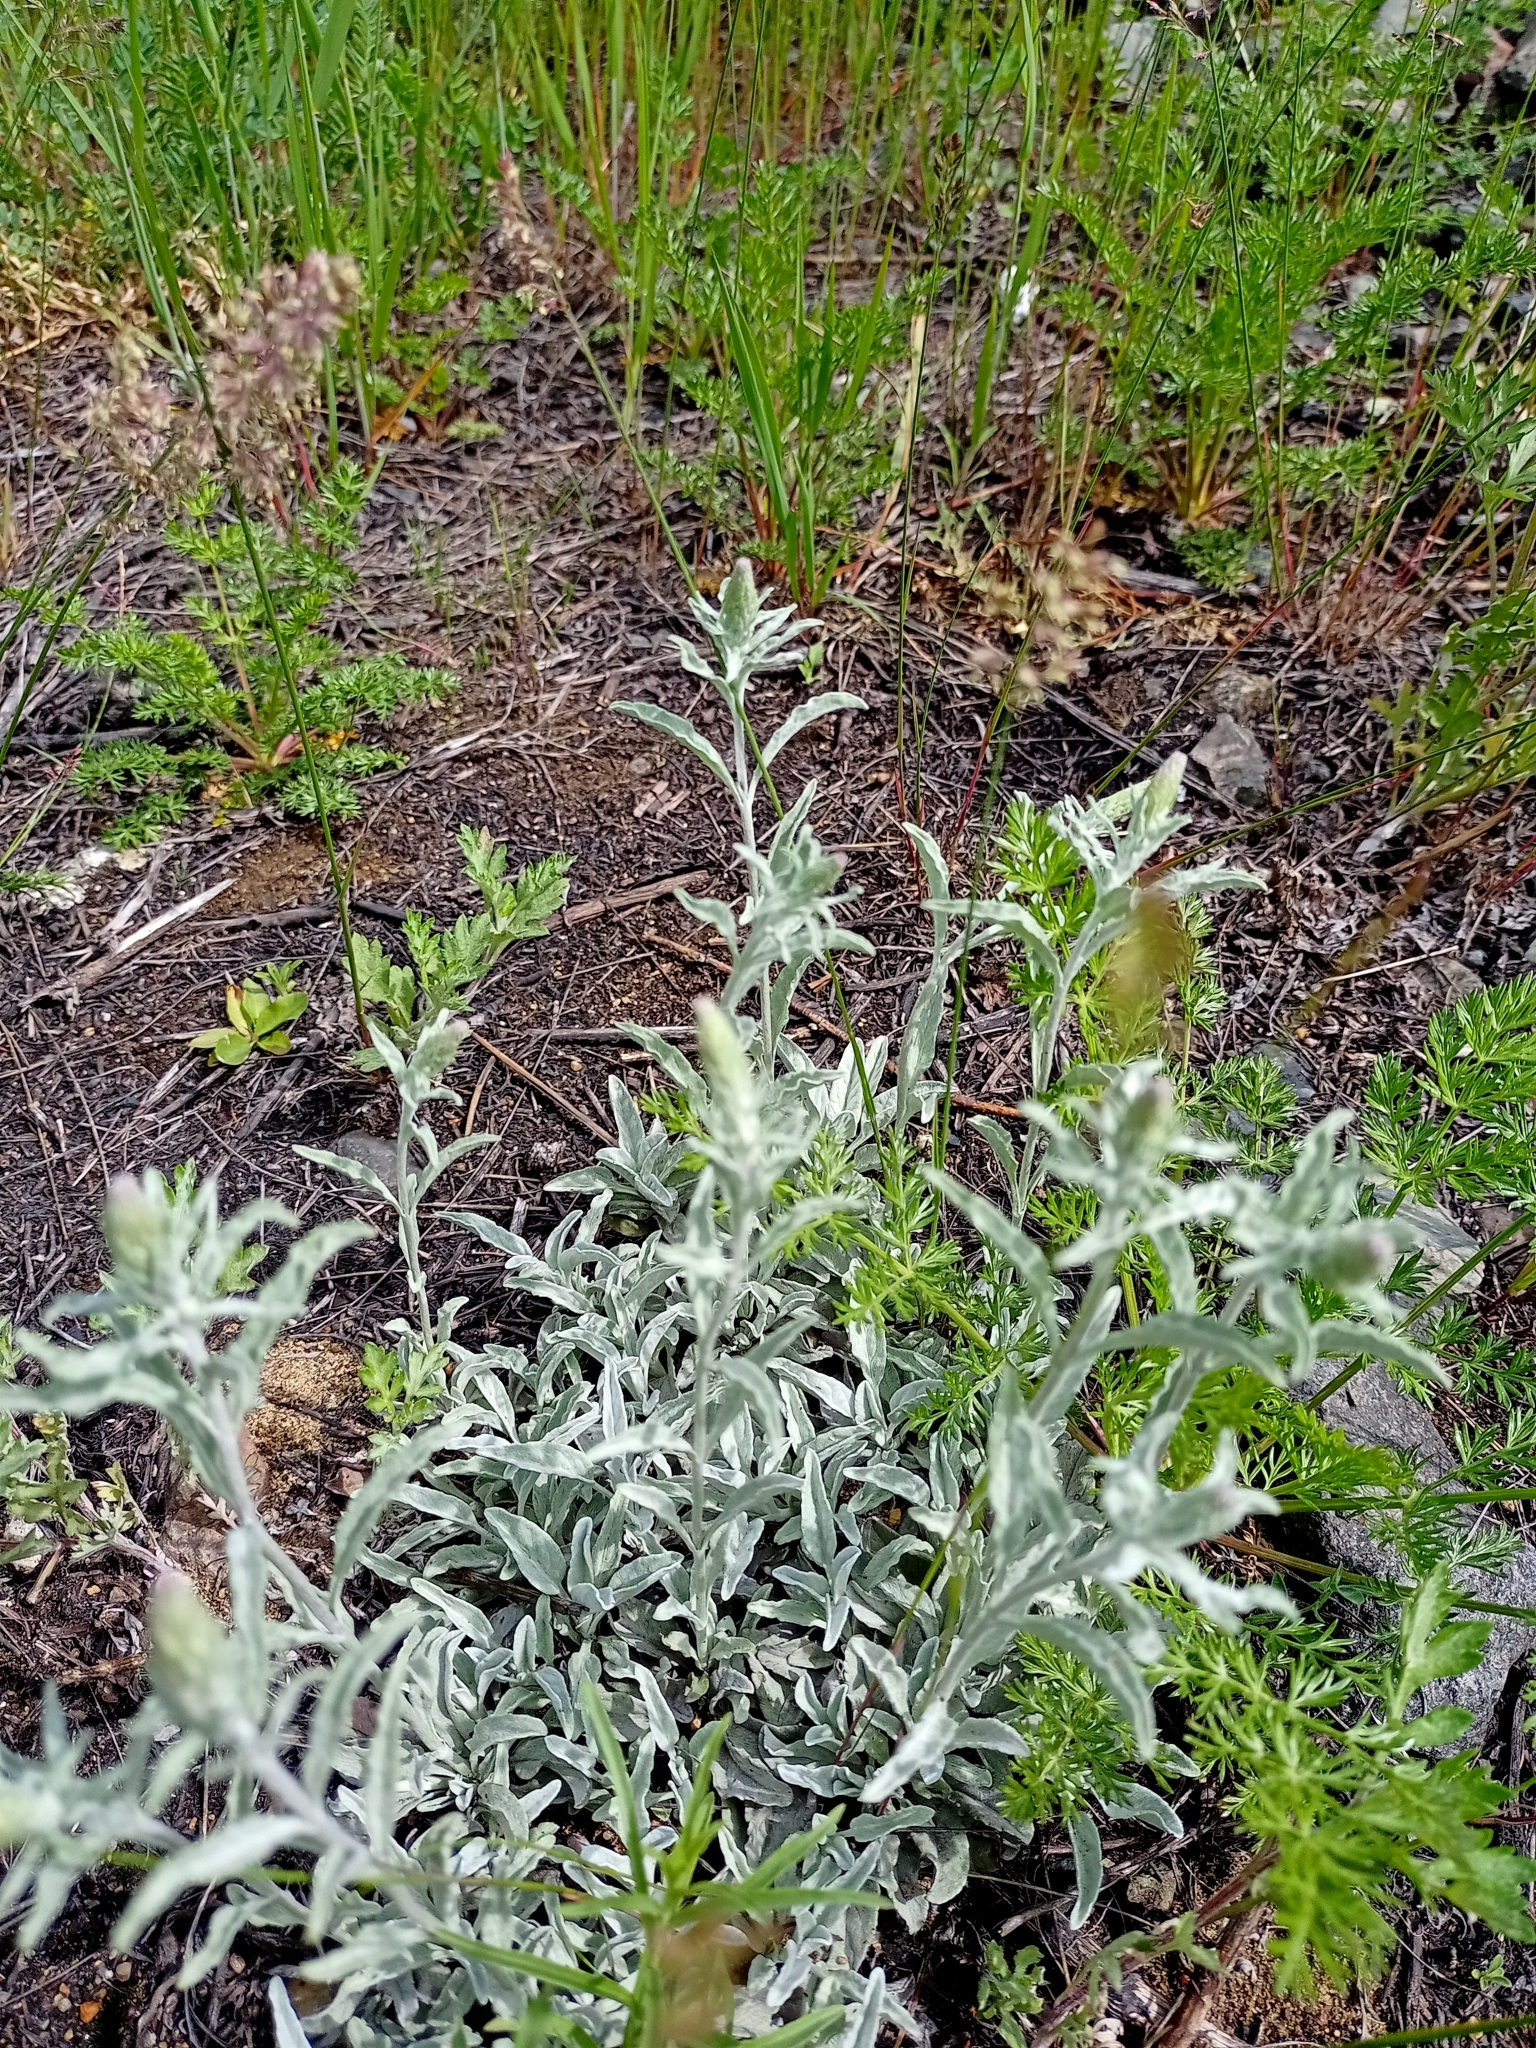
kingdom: Plantae
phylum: Tracheophyta
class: Magnoliopsida
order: Lamiales
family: Plantaginaceae
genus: Veronica
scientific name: Veronica incana
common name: Silver speedwell
